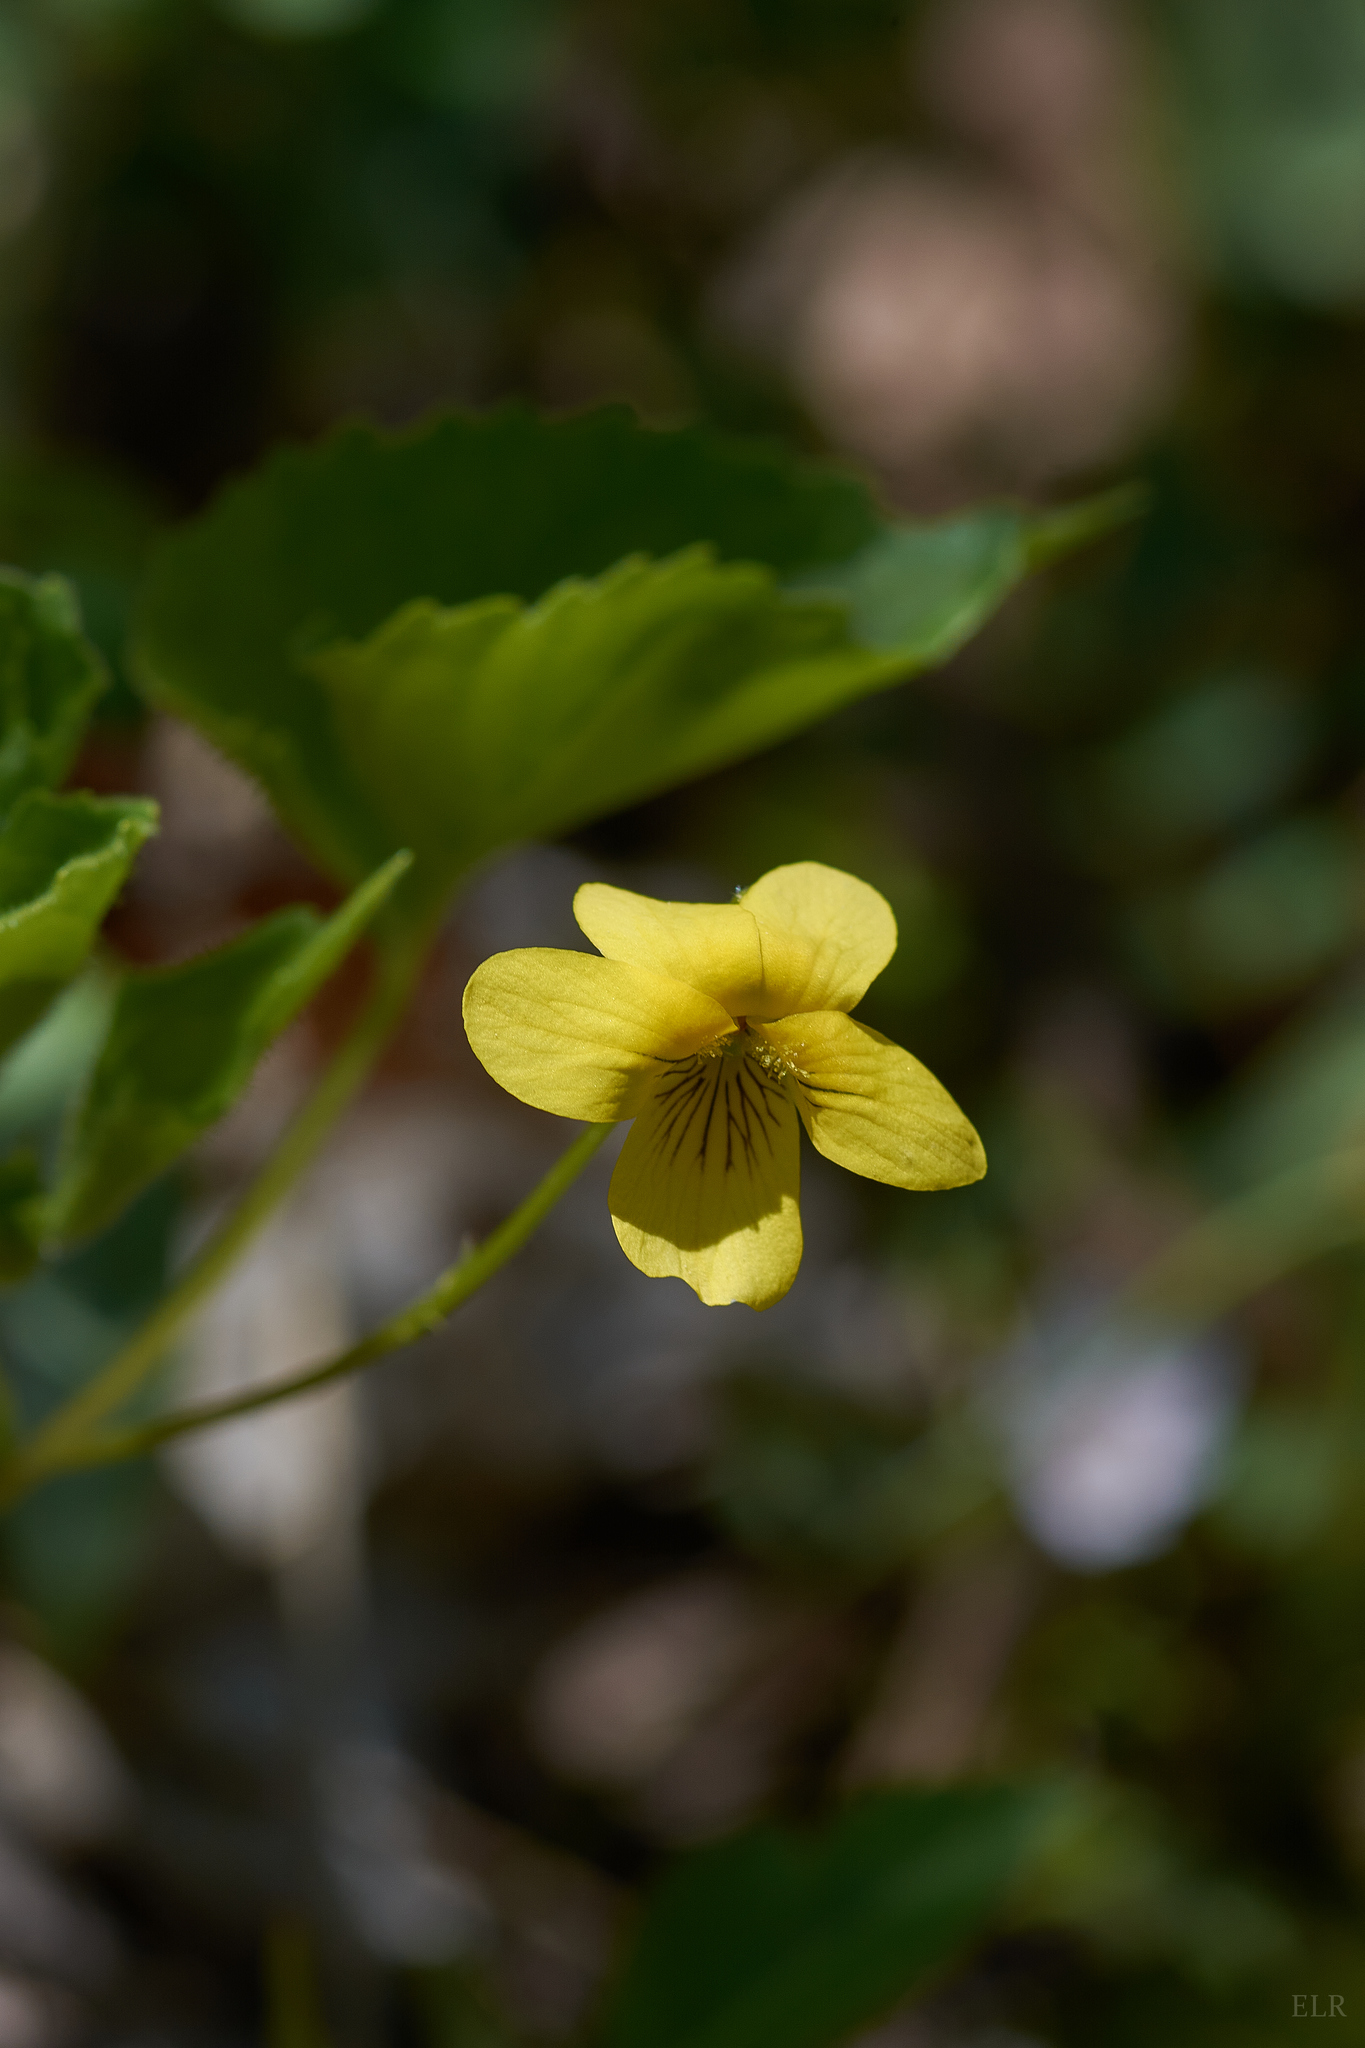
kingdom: Plantae
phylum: Tracheophyta
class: Magnoliopsida
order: Malpighiales
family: Violaceae
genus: Viola
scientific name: Viola eriocarpa
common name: Smooth yellow violet
